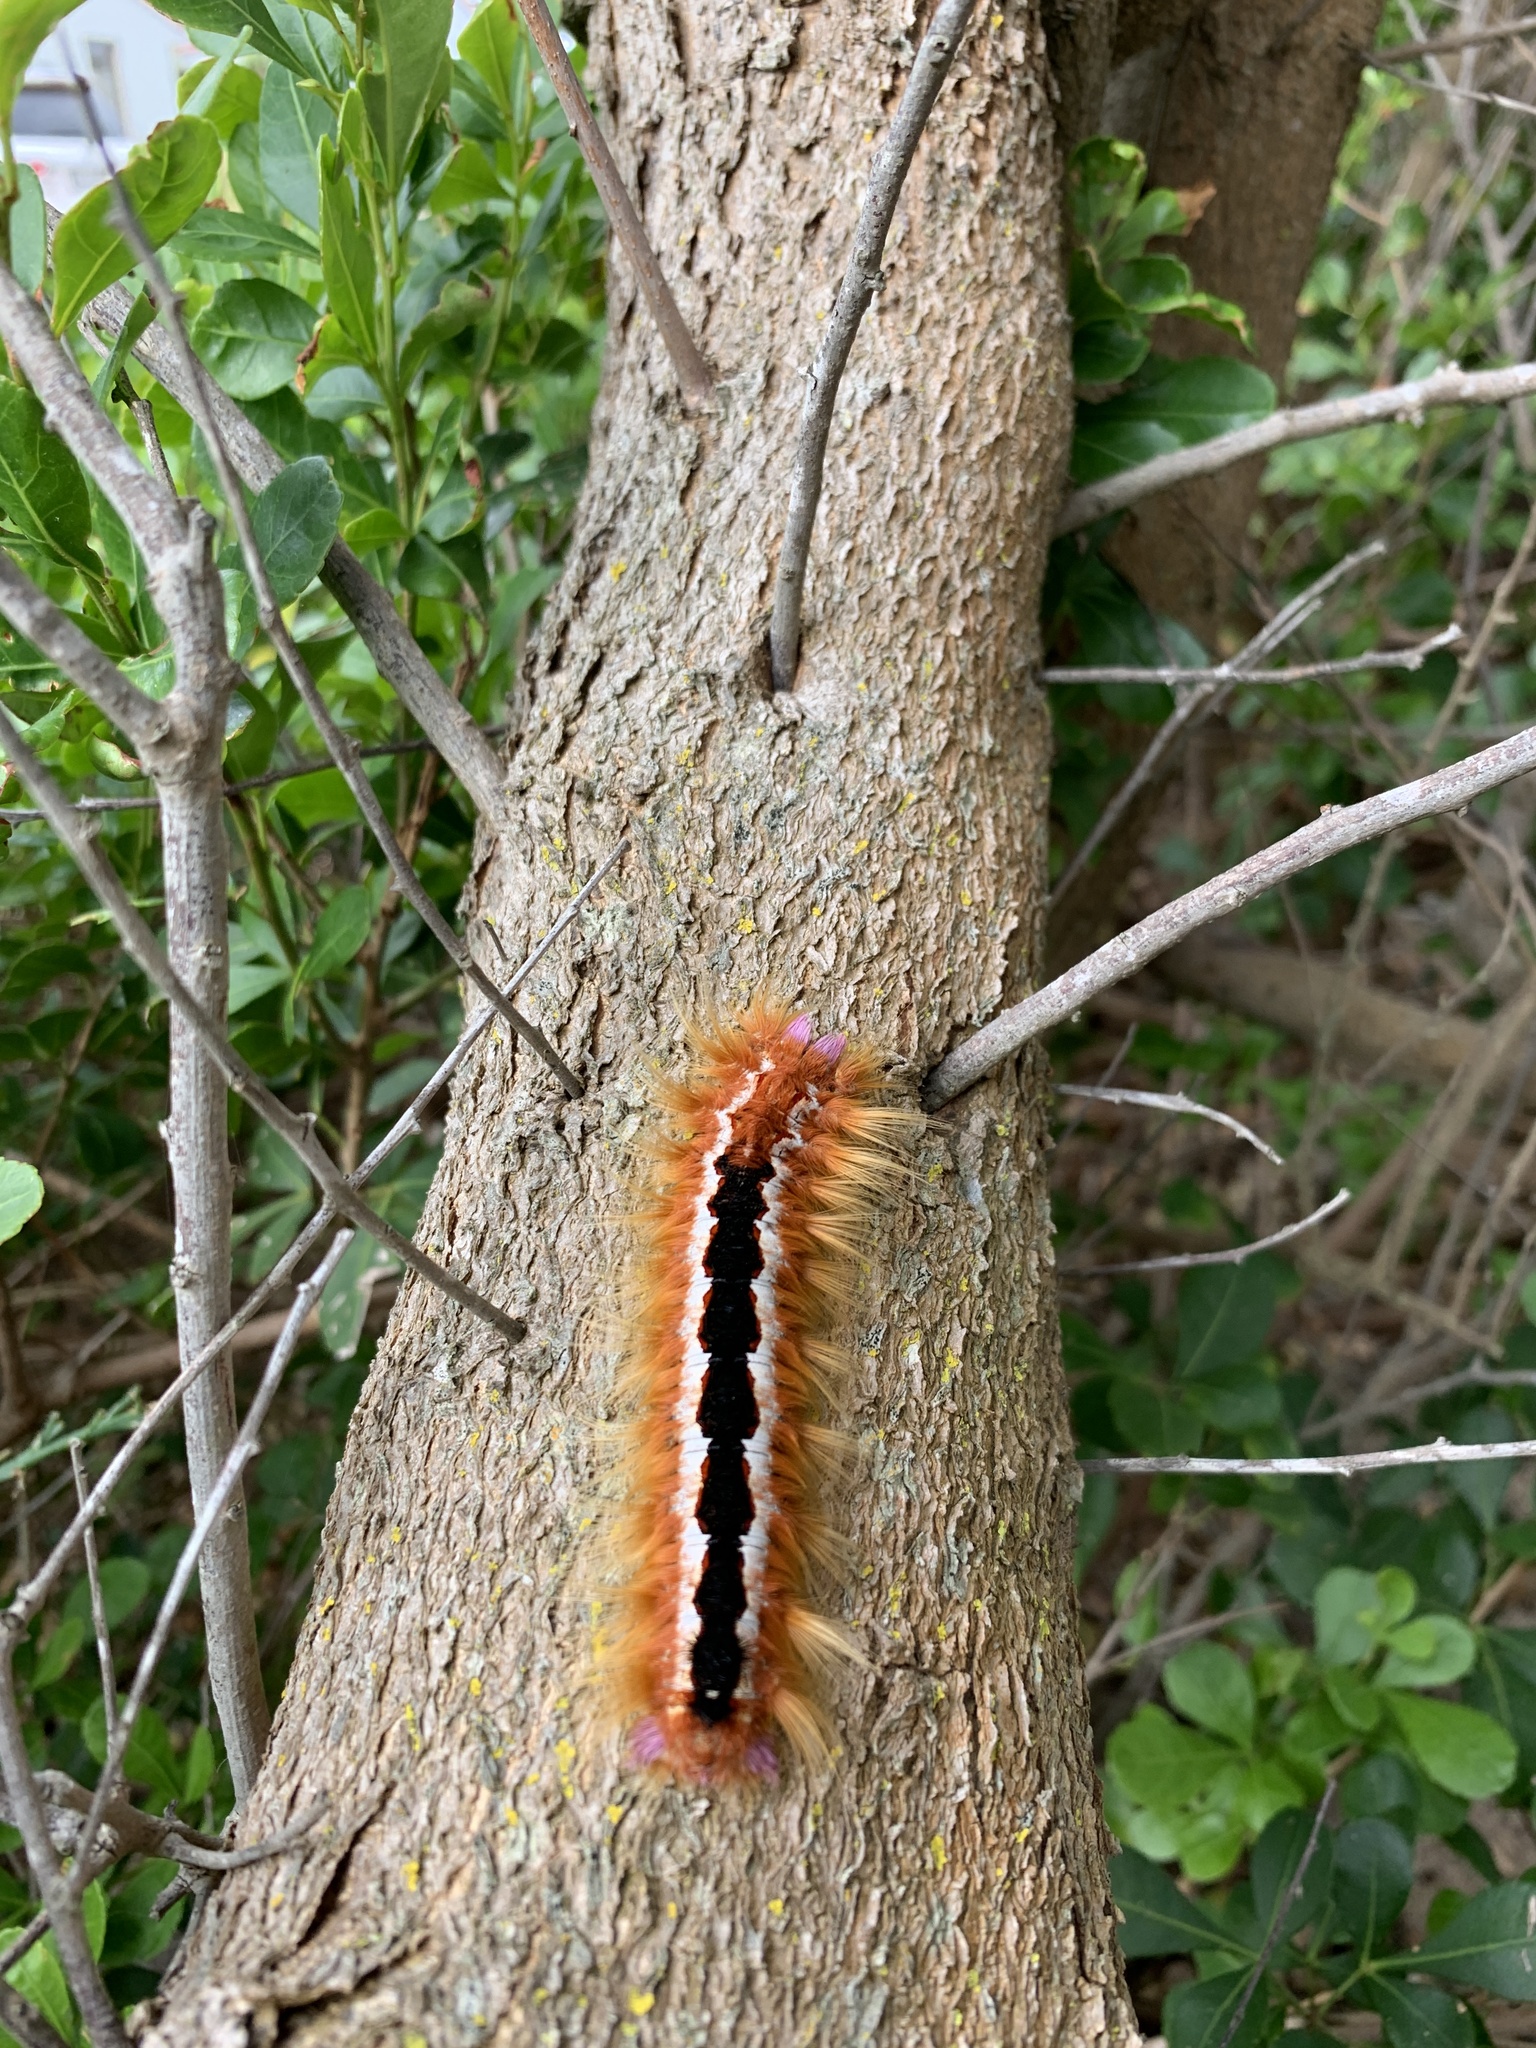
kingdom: Animalia
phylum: Arthropoda
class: Insecta
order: Lepidoptera
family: Lasiocampidae
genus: Eutricha
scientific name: Eutricha capensis
